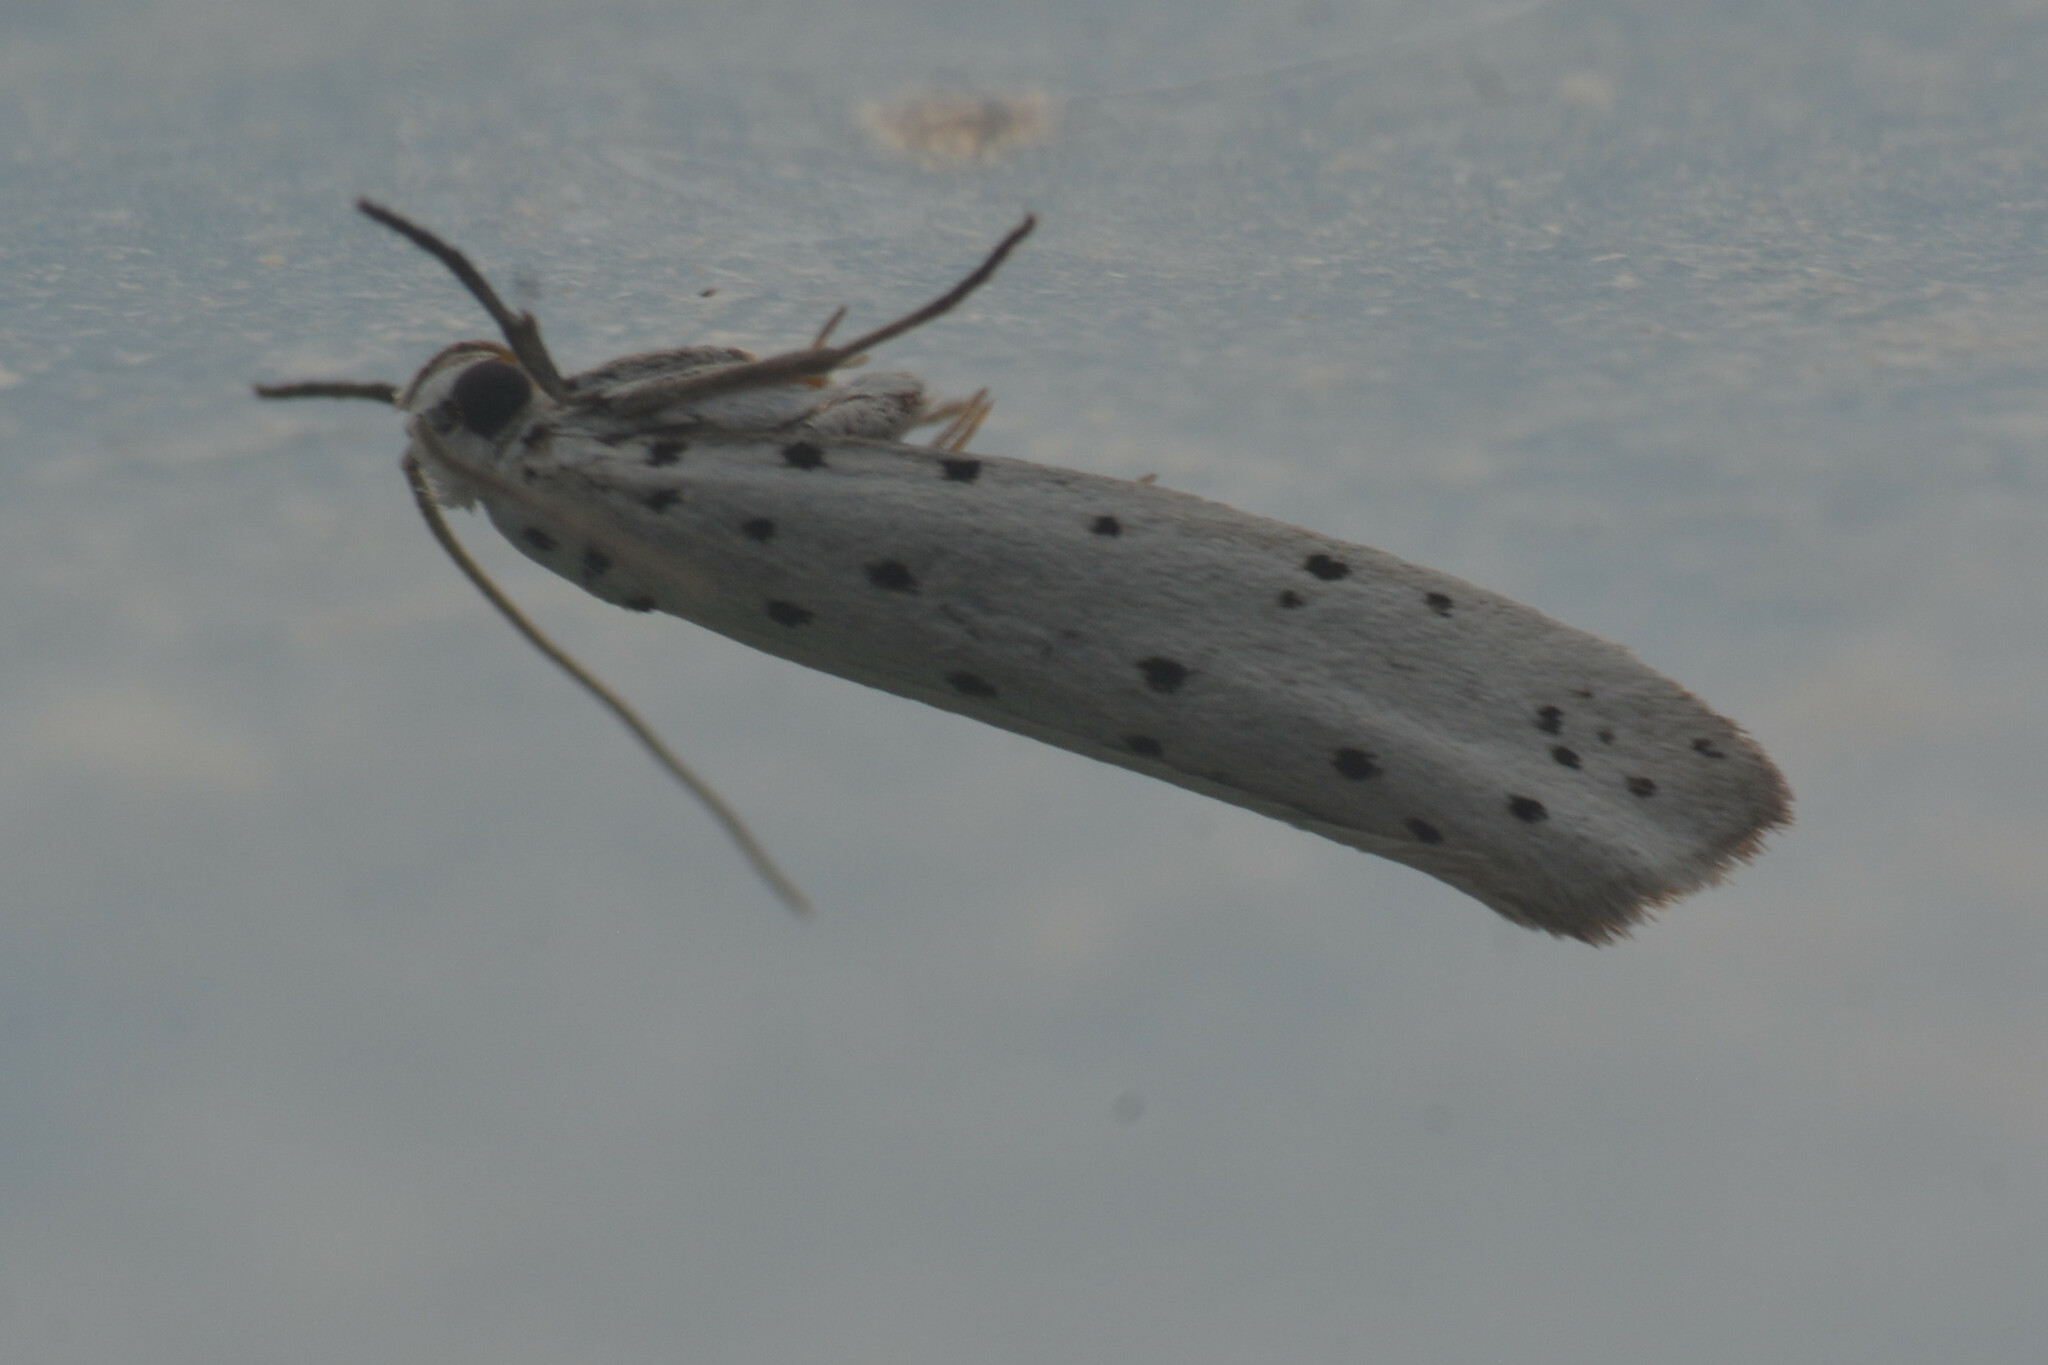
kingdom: Animalia
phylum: Arthropoda
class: Insecta
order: Lepidoptera
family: Yponomeutidae
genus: Yponomeuta
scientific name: Yponomeuta
